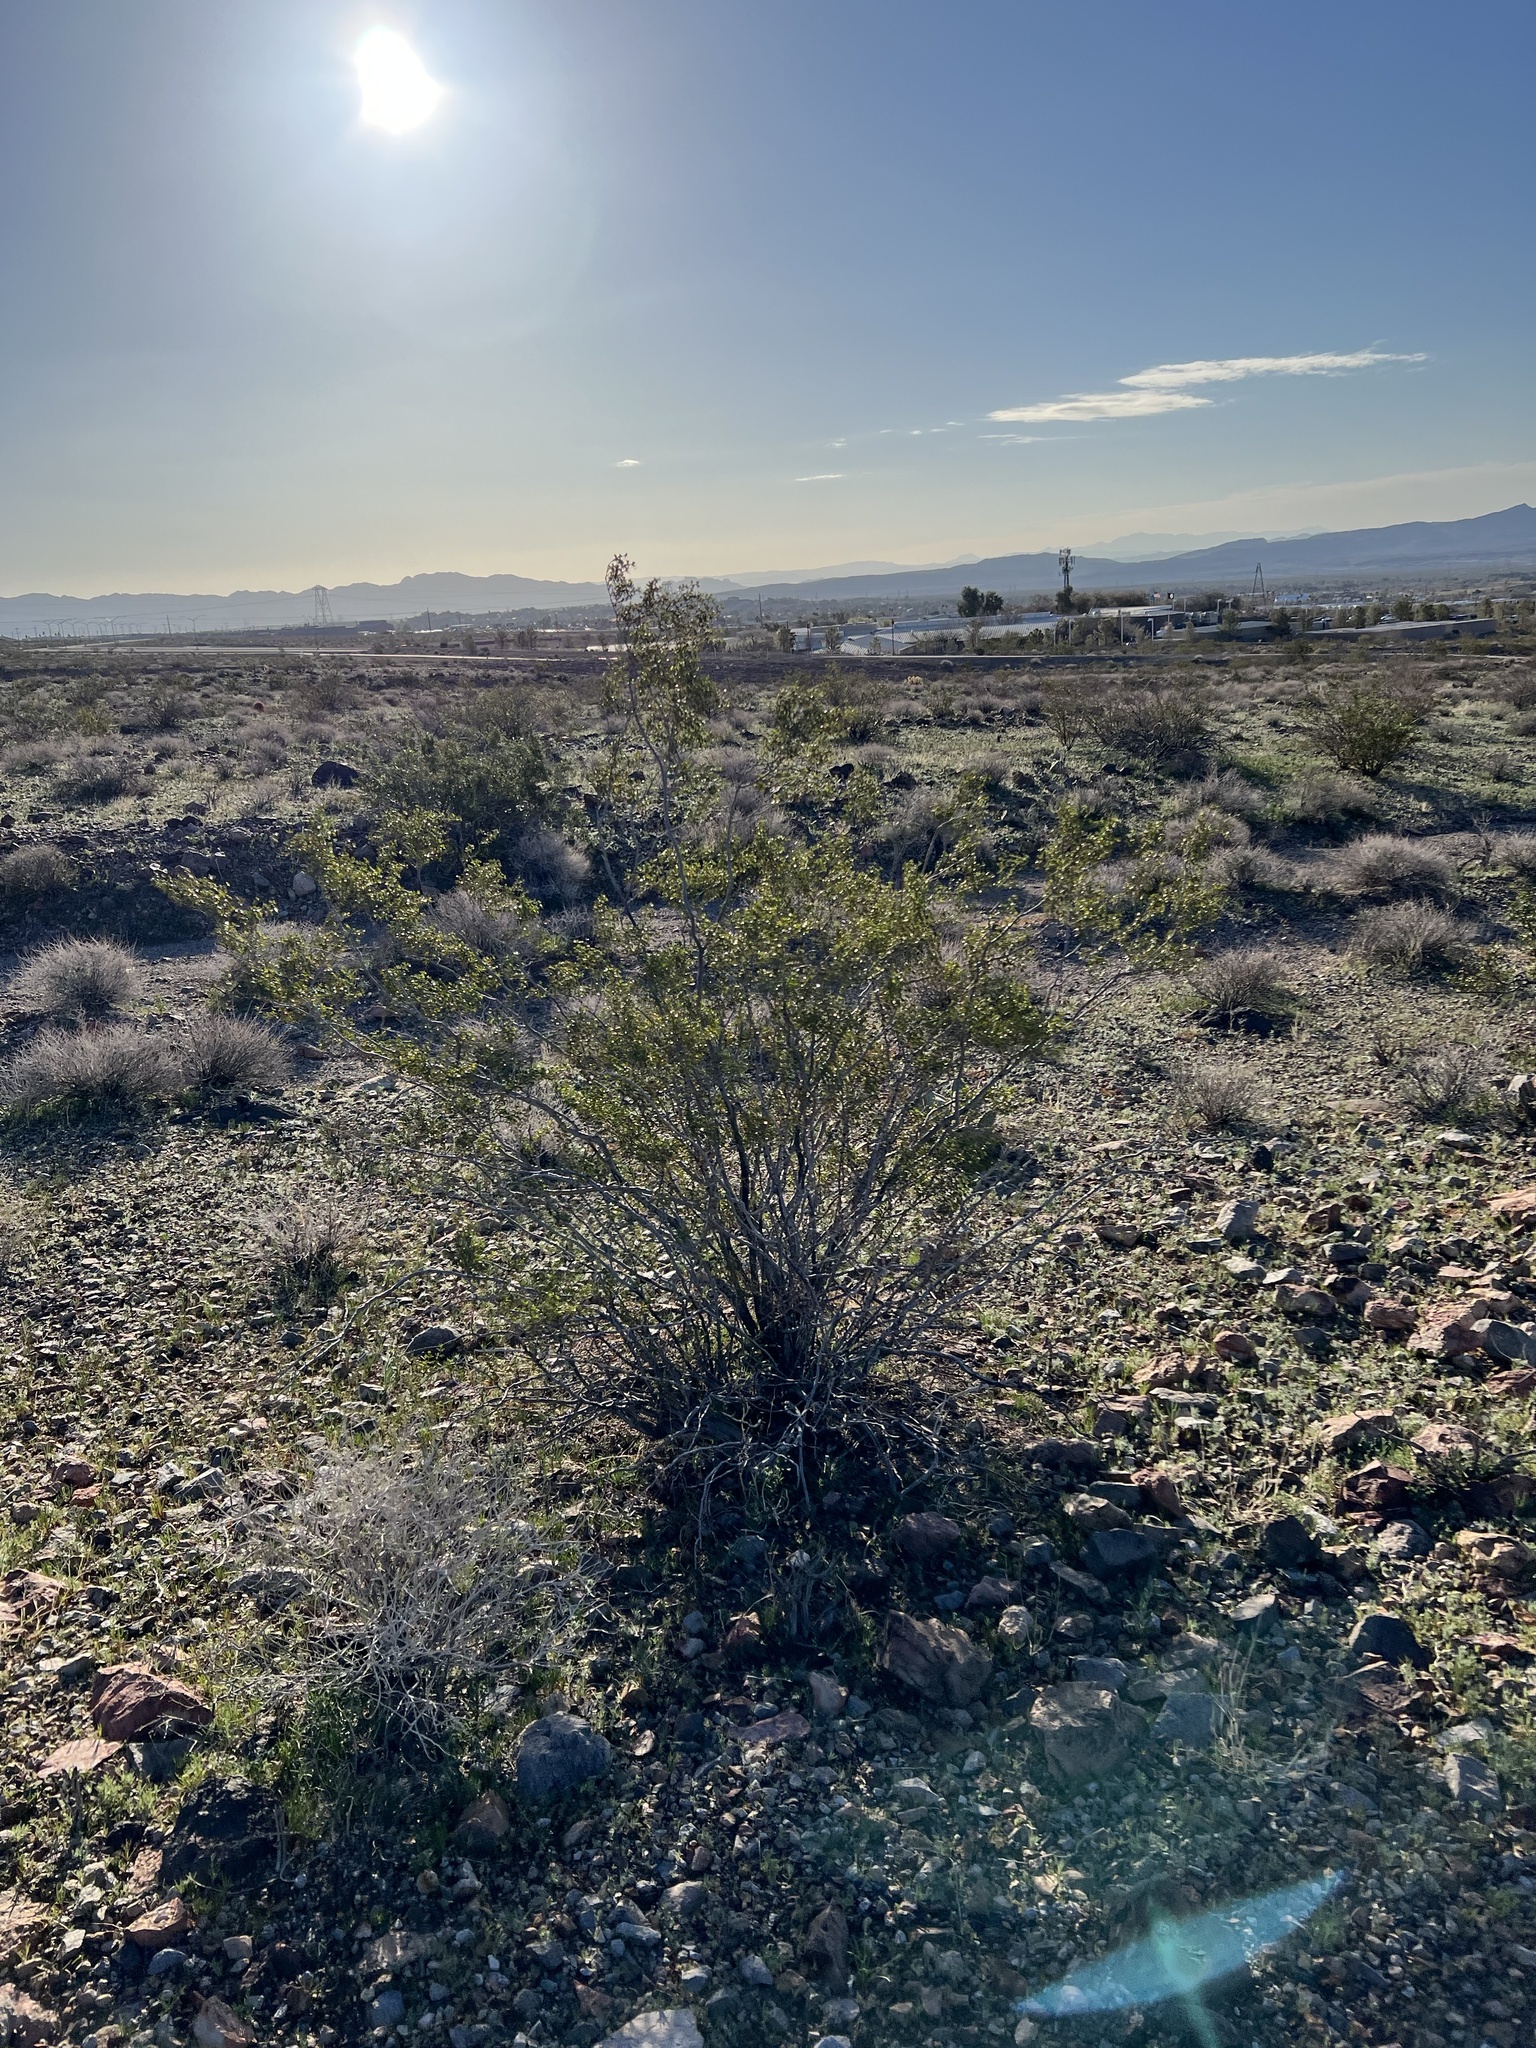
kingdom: Plantae
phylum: Tracheophyta
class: Magnoliopsida
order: Zygophyllales
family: Zygophyllaceae
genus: Larrea
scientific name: Larrea tridentata
